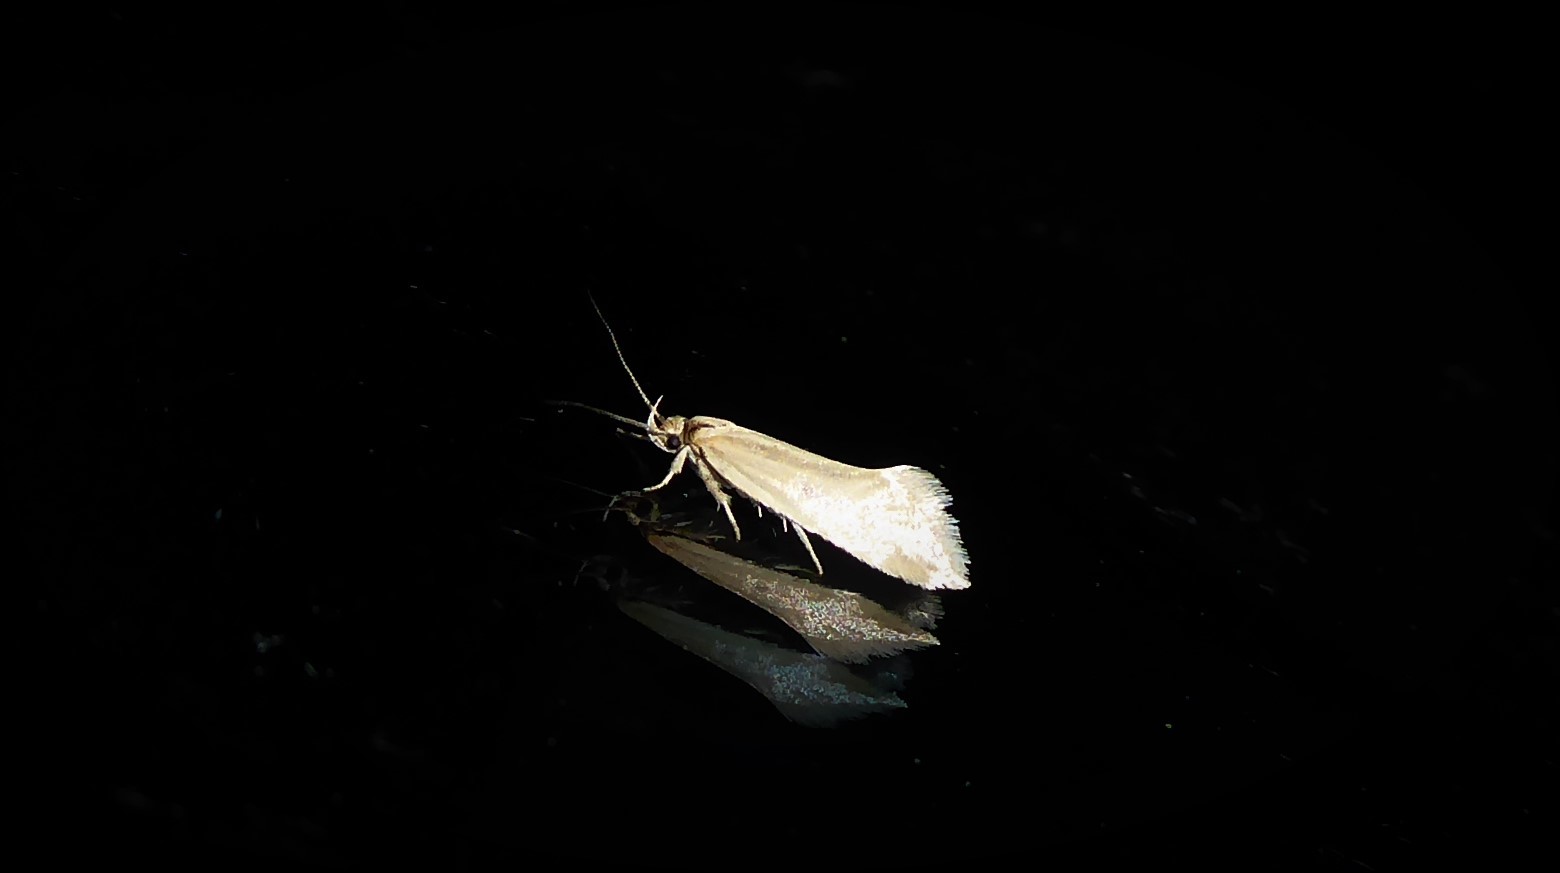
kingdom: Animalia
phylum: Arthropoda
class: Insecta
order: Lepidoptera
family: Oecophoridae
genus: Tingena
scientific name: Tingena chloradelpha
